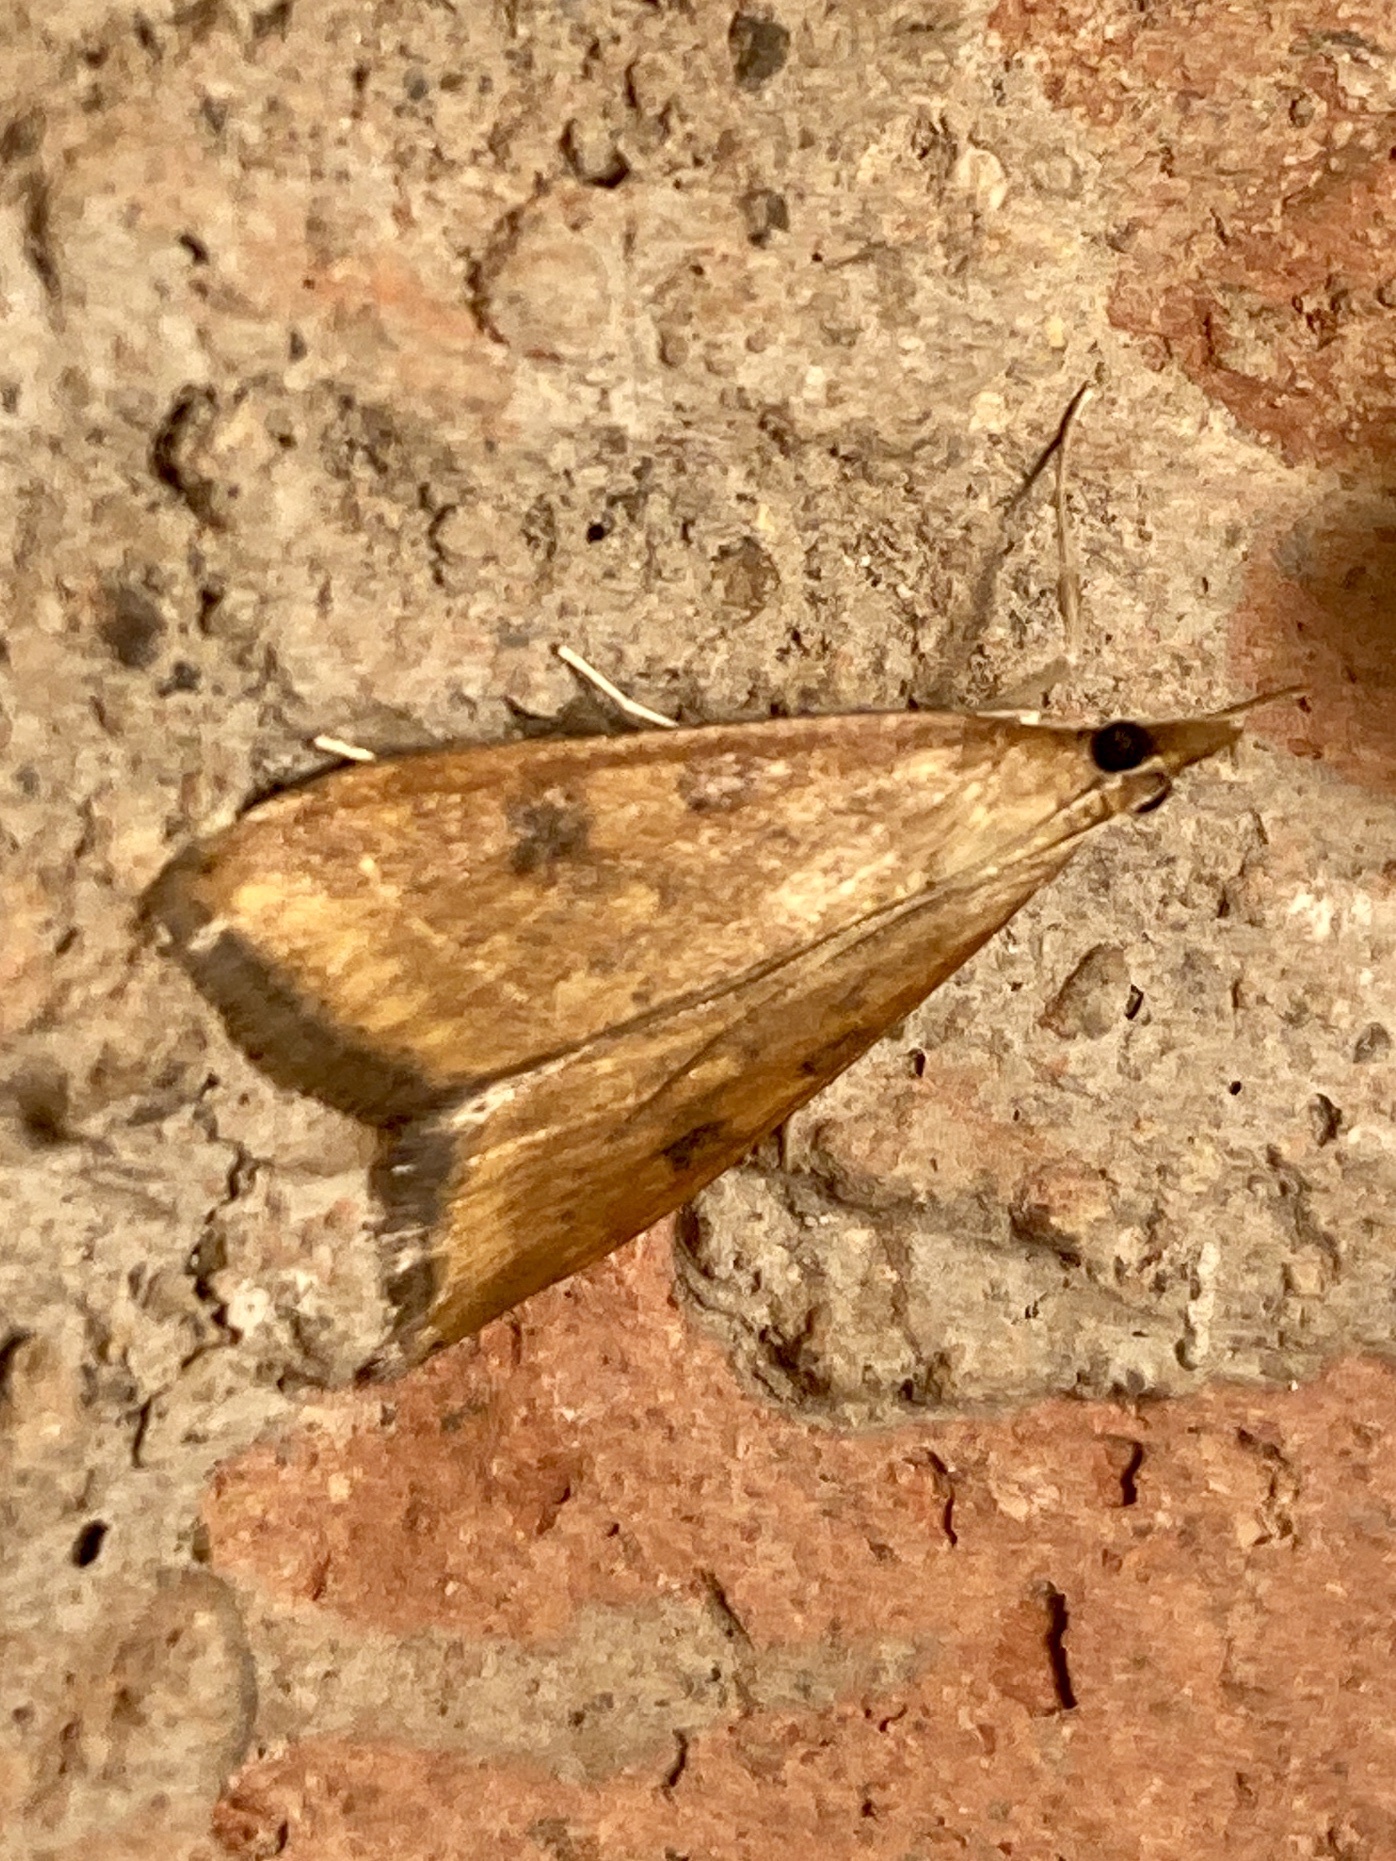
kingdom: Animalia
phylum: Arthropoda
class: Insecta
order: Lepidoptera
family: Crambidae
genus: Udea
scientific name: Udea ferrugalis
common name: Rusty dot
